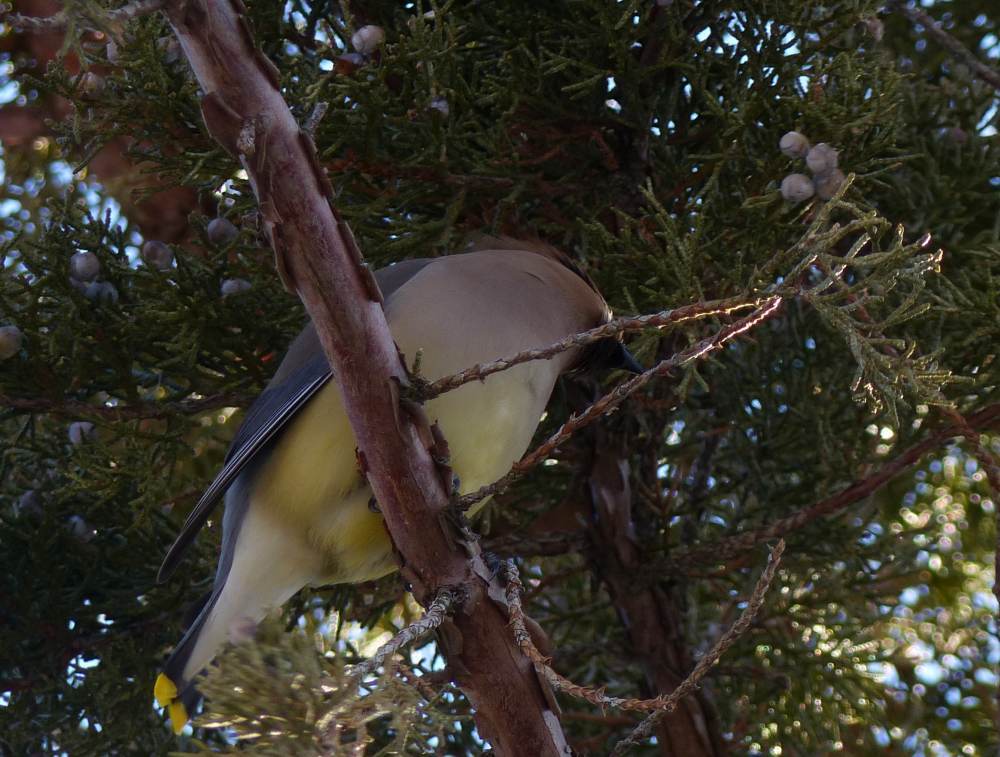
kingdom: Animalia
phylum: Chordata
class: Aves
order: Passeriformes
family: Bombycillidae
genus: Bombycilla
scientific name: Bombycilla cedrorum
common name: Cedar waxwing
